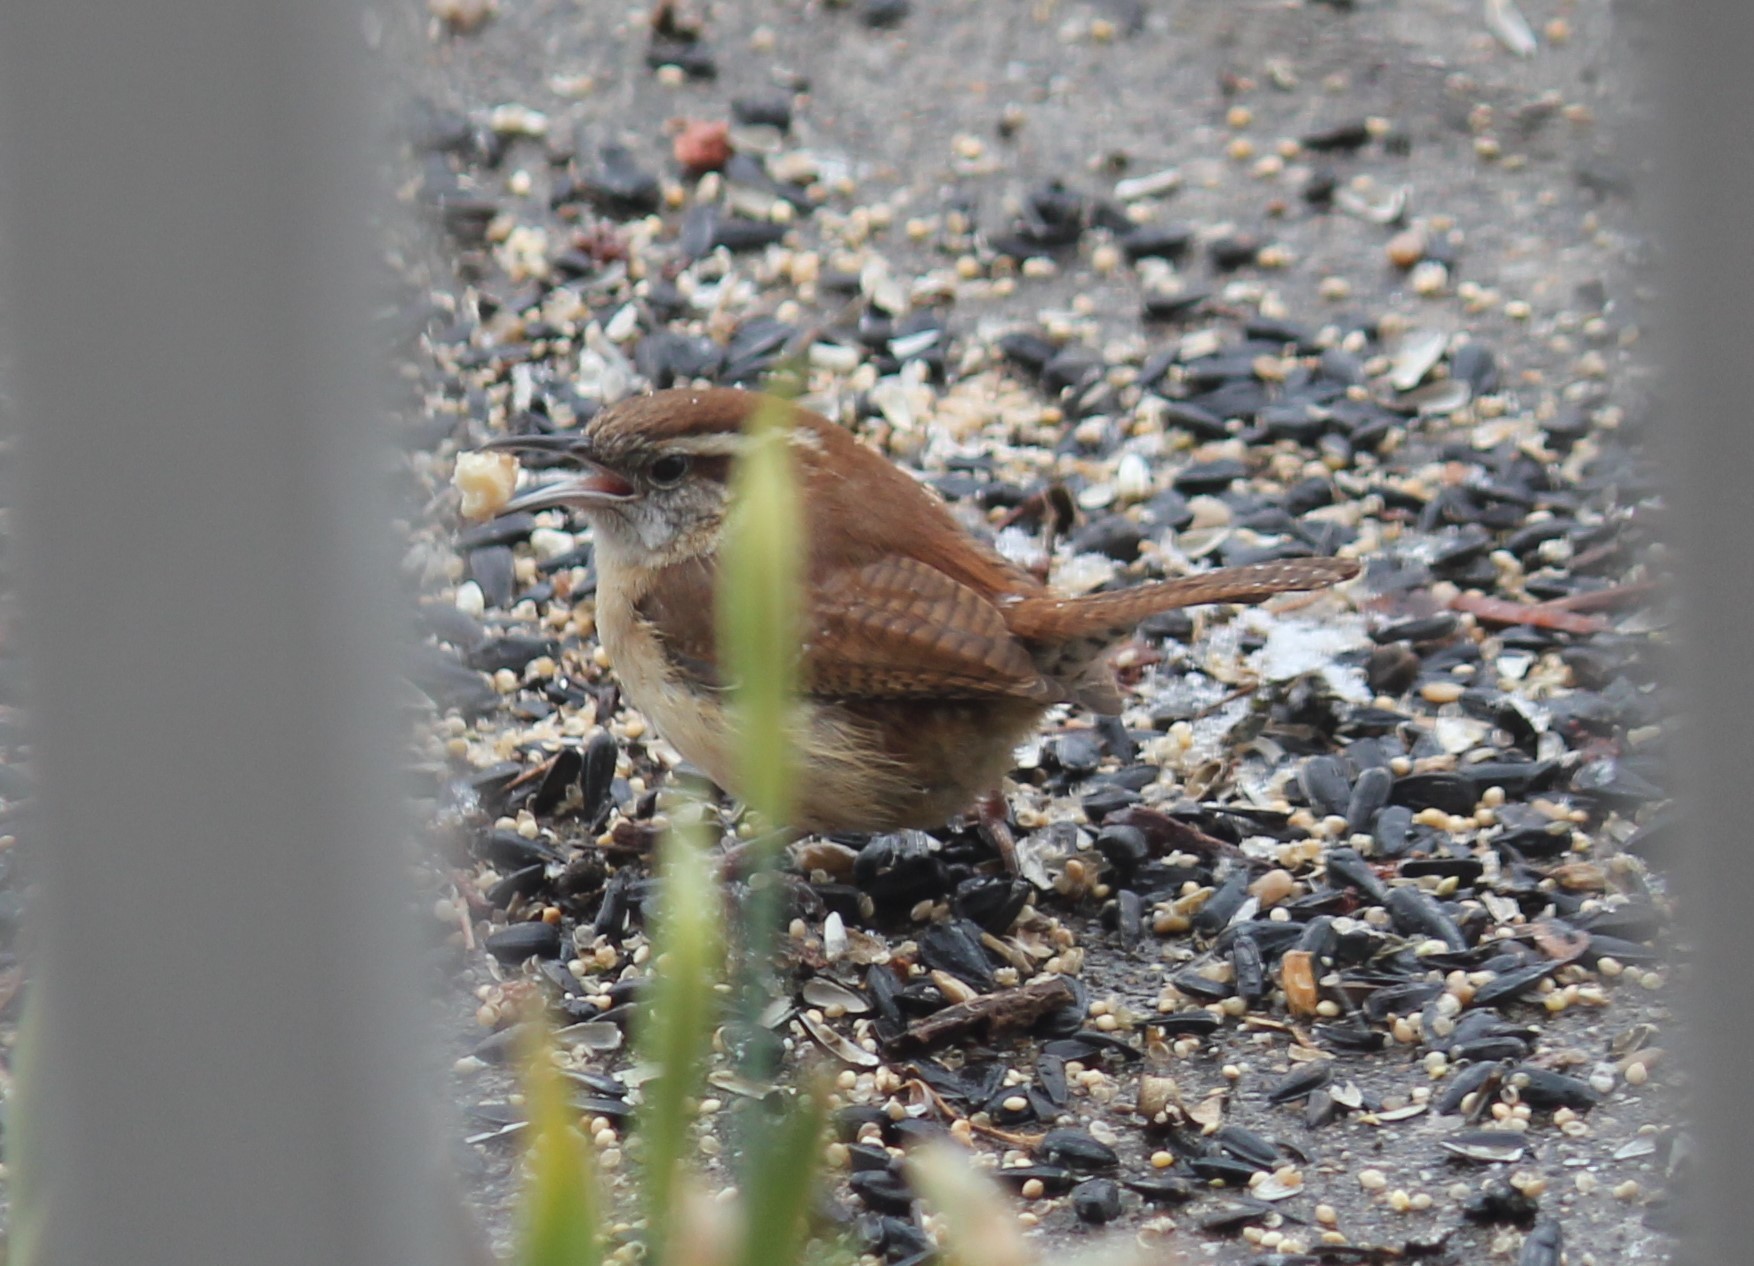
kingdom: Animalia
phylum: Chordata
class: Aves
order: Passeriformes
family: Troglodytidae
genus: Thryothorus
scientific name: Thryothorus ludovicianus
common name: Carolina wren
